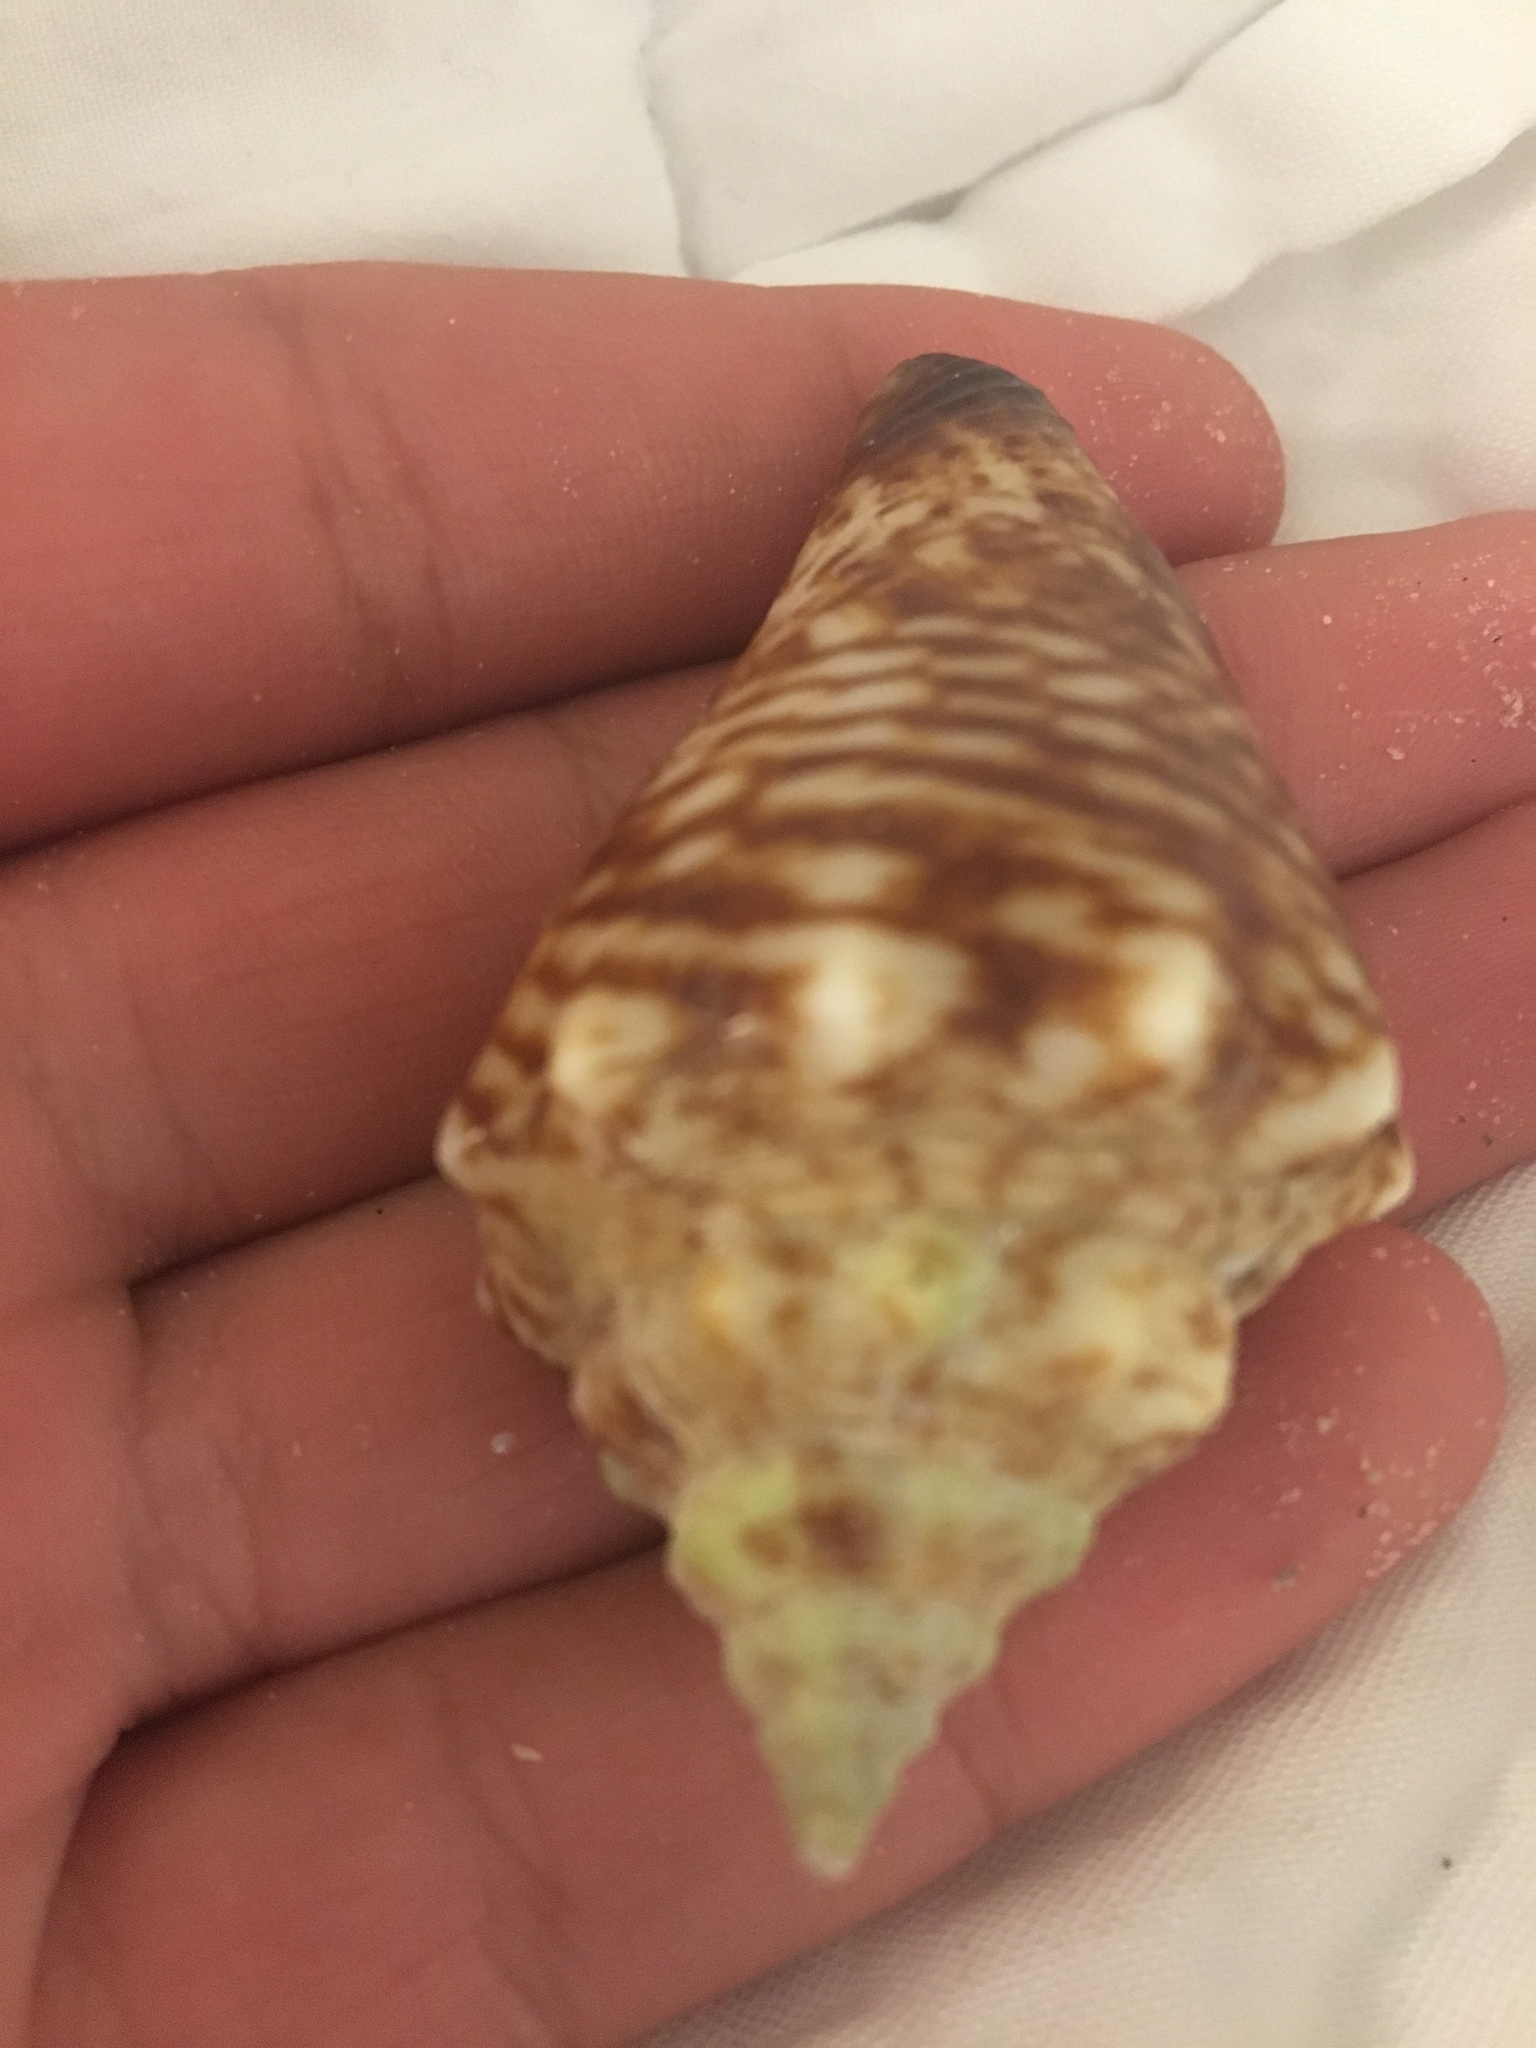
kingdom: Animalia
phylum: Mollusca
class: Gastropoda
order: Littorinimorpha
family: Strombidae
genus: Strombus
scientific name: Strombus alatus
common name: Florida fighting conch
